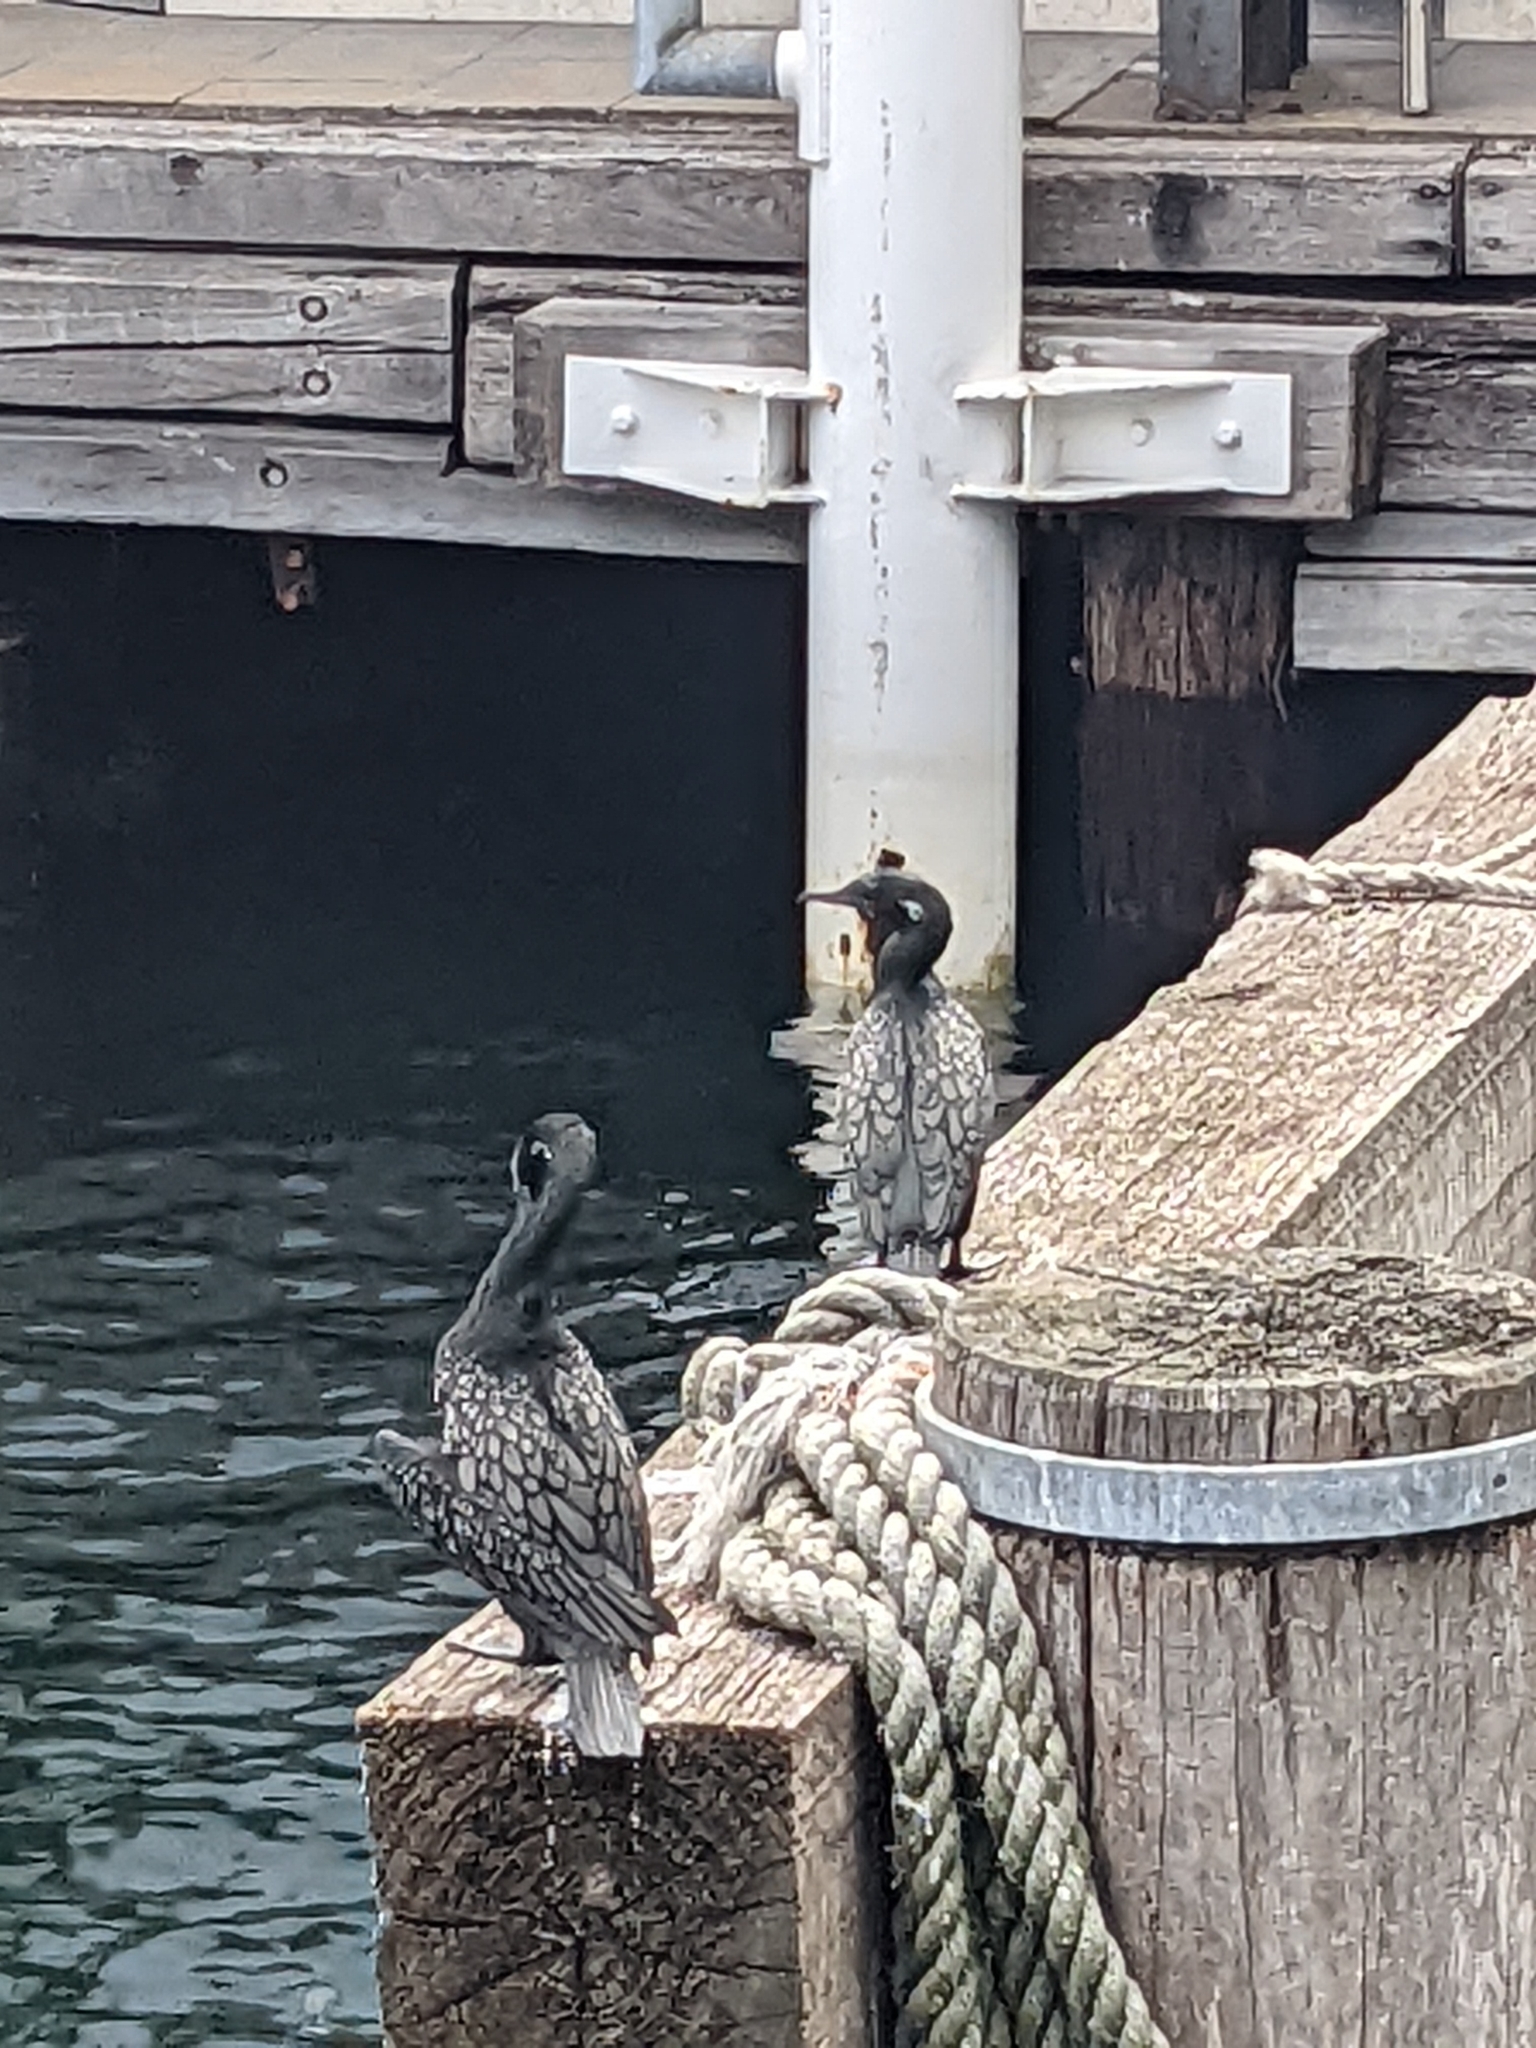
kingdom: Animalia
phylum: Chordata
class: Aves
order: Suliformes
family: Phalacrocoracidae
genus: Phalacrocorax
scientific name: Phalacrocorax sulcirostris
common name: Little black cormorant
